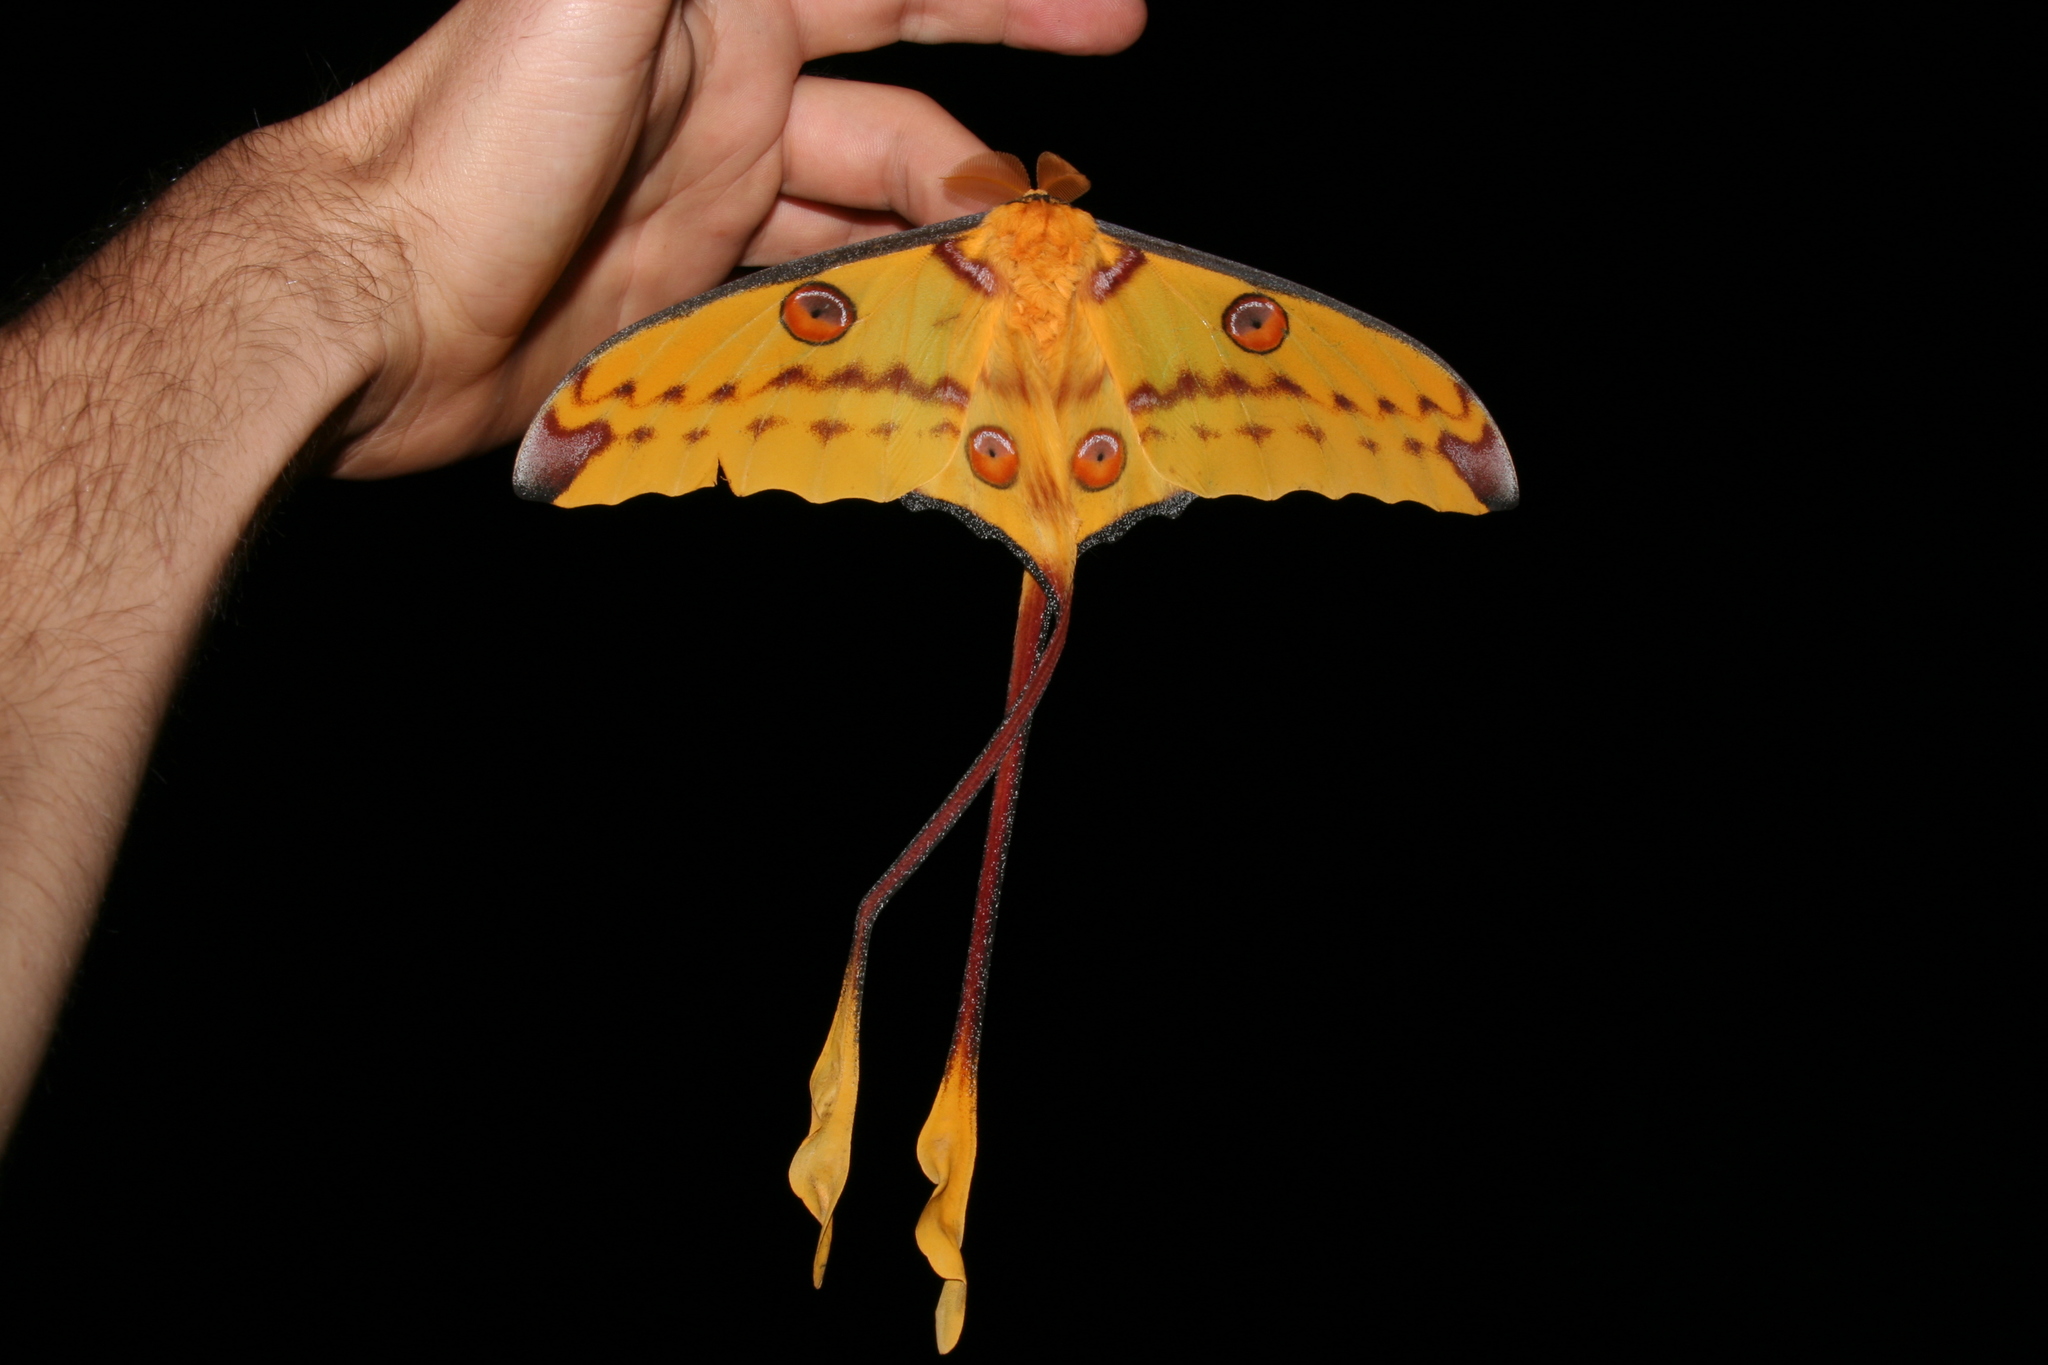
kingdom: Animalia
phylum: Arthropoda
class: Insecta
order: Lepidoptera
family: Saturniidae
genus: Argema
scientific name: Argema mittrei
